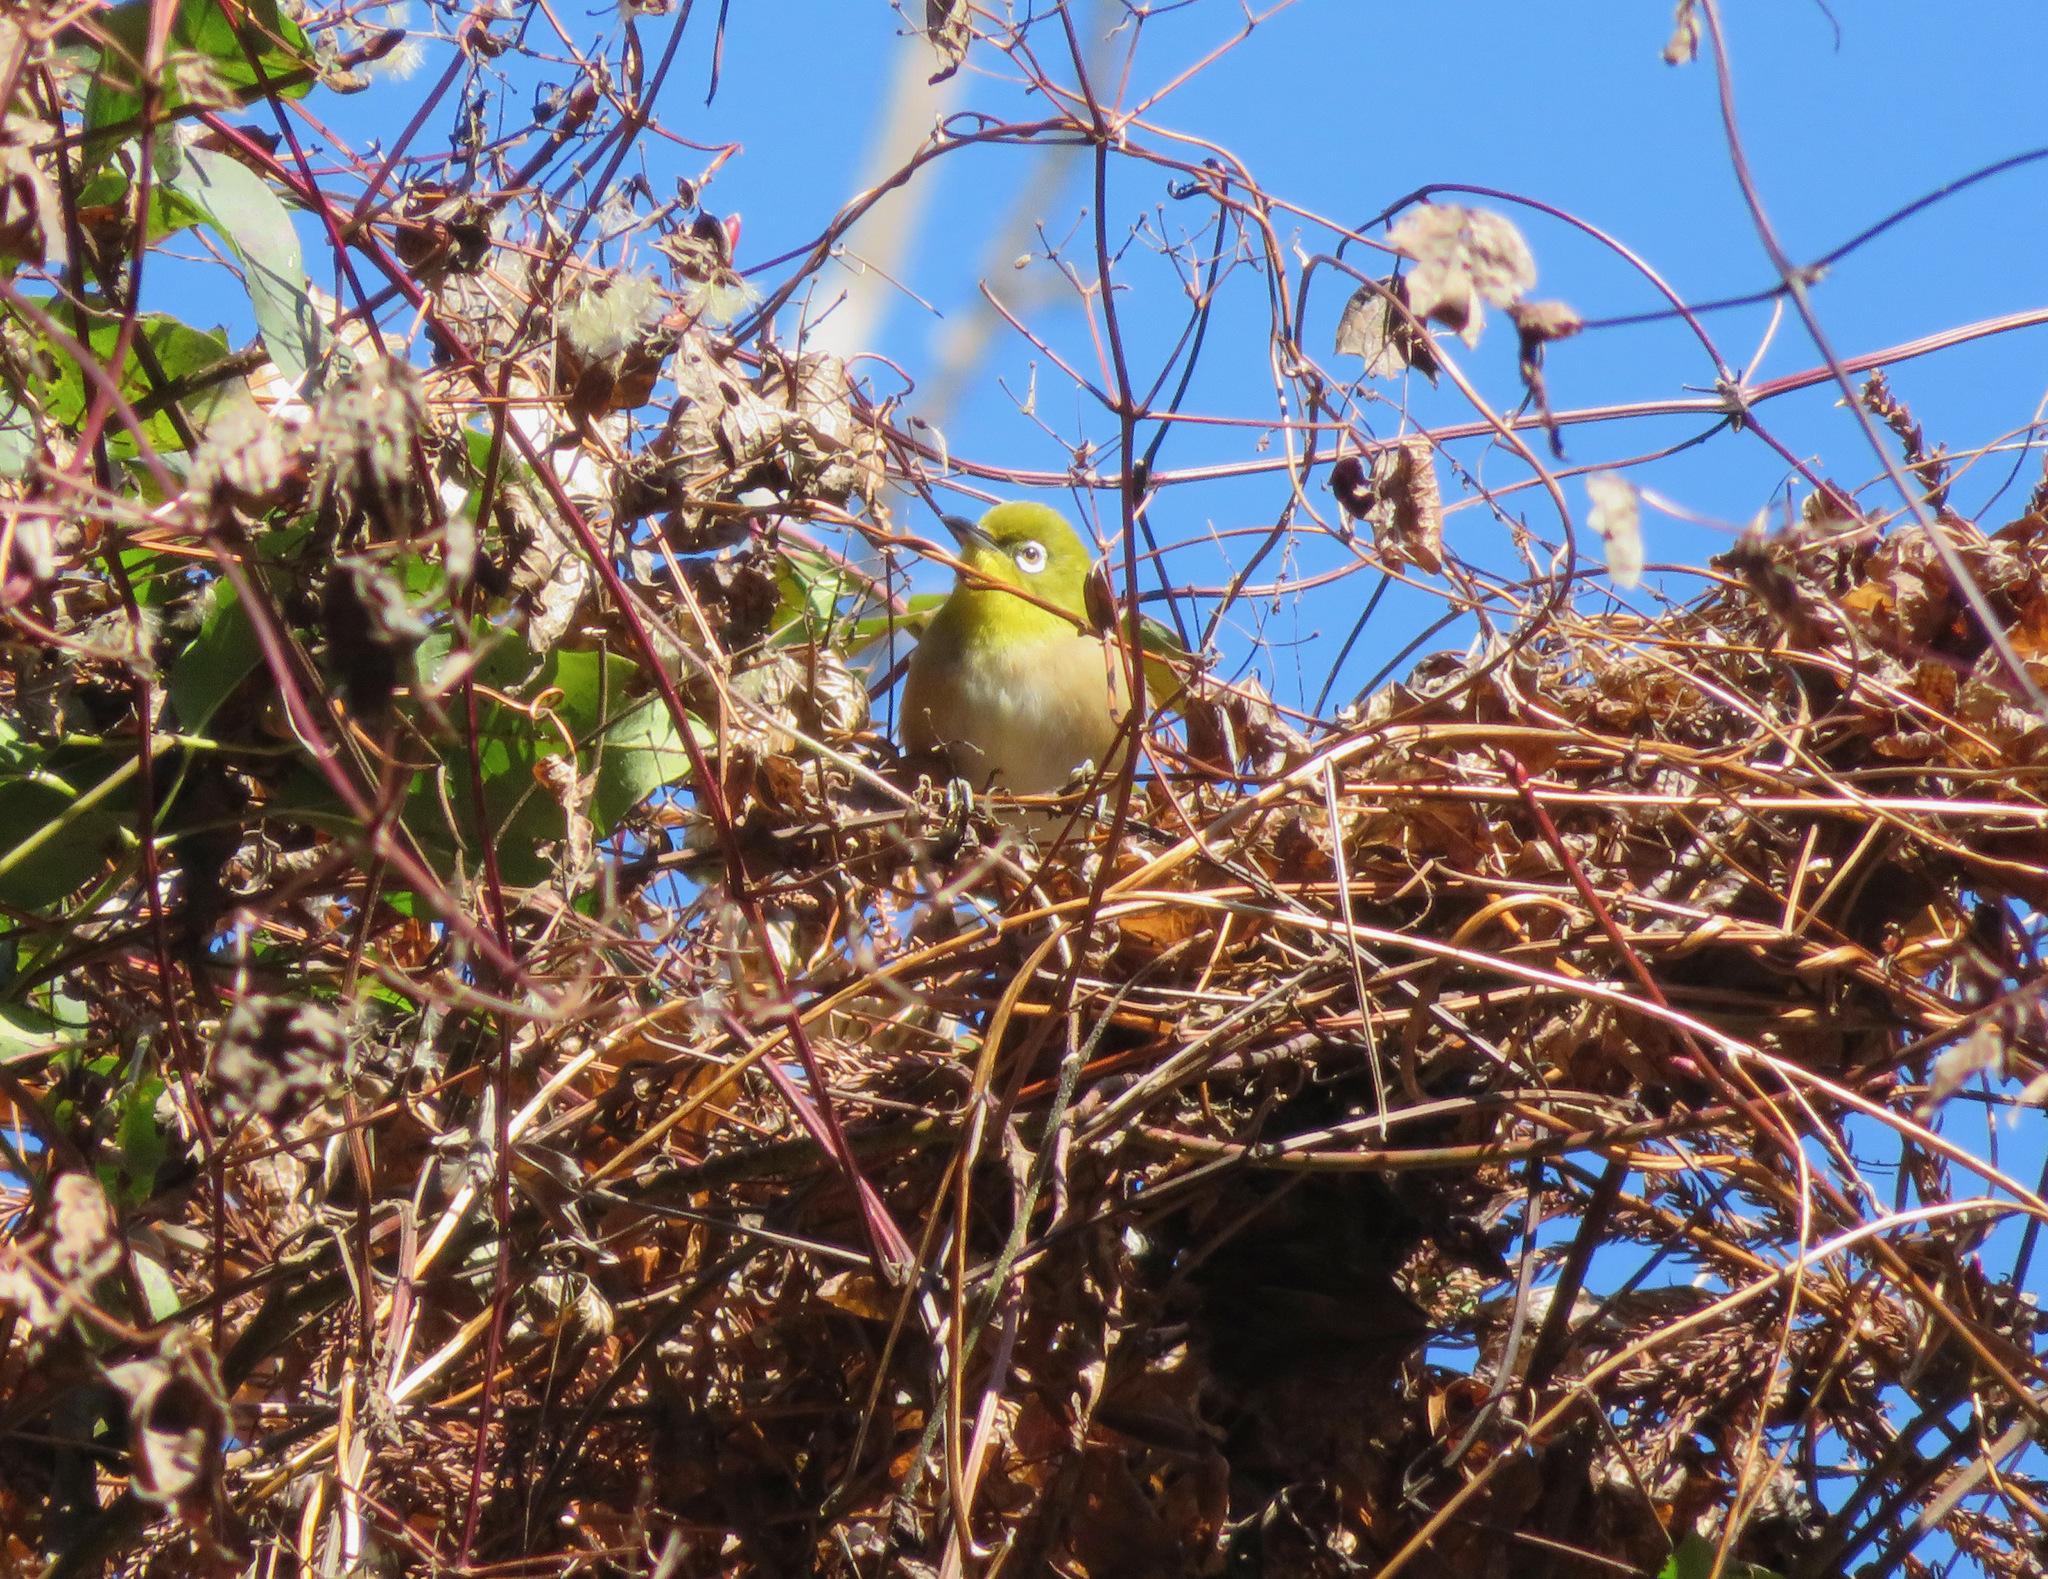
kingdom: Animalia
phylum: Chordata
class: Aves
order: Passeriformes
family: Zosteropidae
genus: Zosterops
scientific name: Zosterops japonicus
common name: Japanese white-eye
